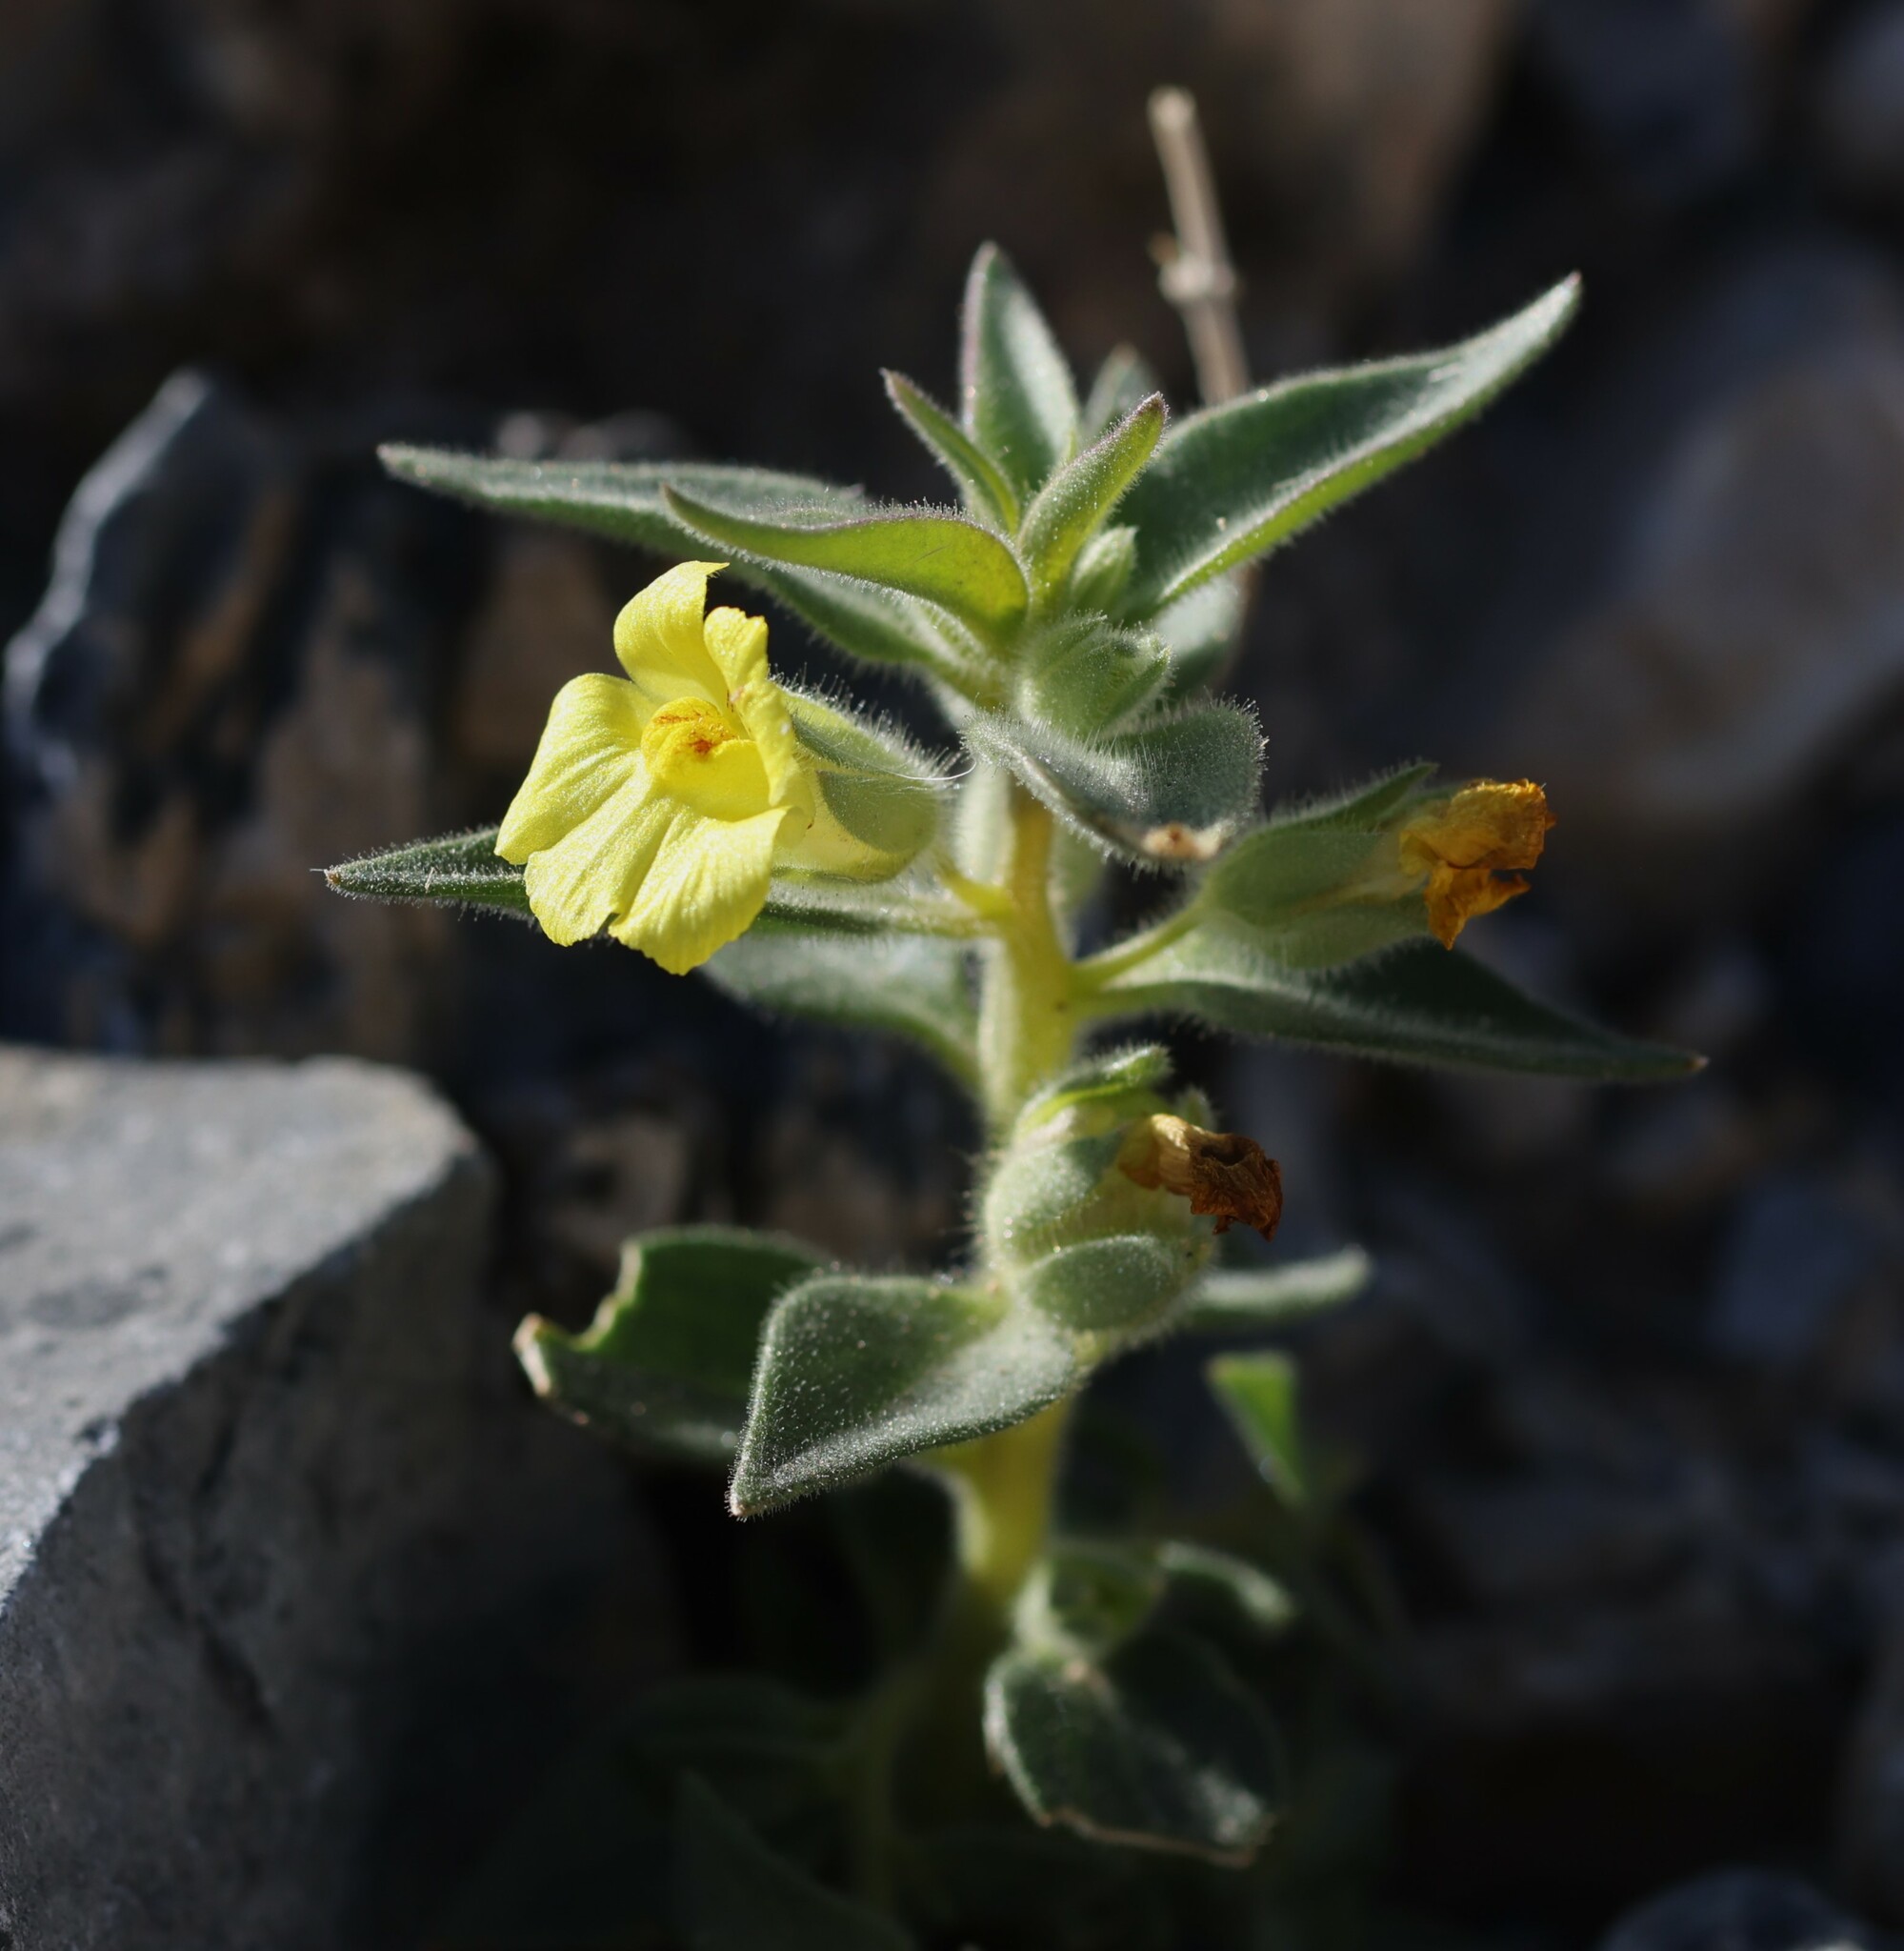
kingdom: Plantae
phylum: Tracheophyta
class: Magnoliopsida
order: Lamiales
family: Plantaginaceae
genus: Mohavea
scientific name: Mohavea breviflora
